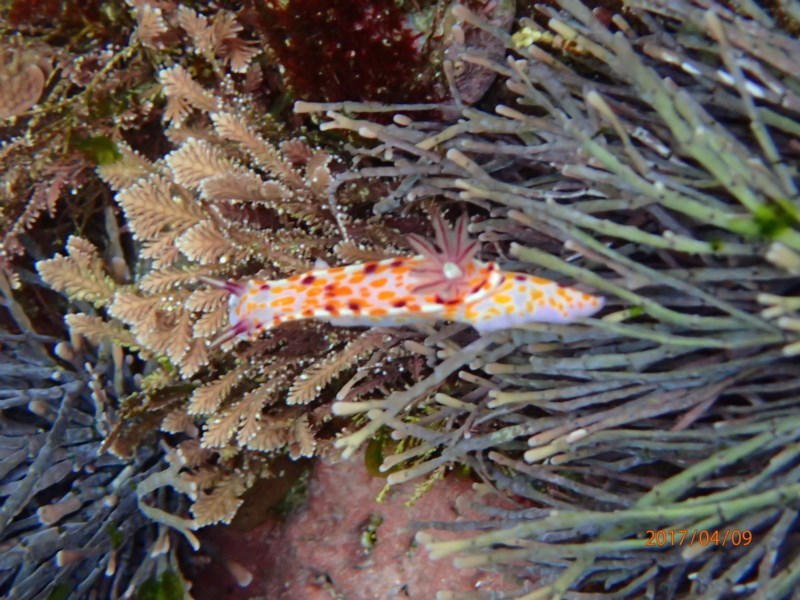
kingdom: Animalia
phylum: Mollusca
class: Gastropoda
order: Nudibranchia
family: Chromodorididae
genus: Ceratosoma
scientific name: Ceratosoma amoenum
